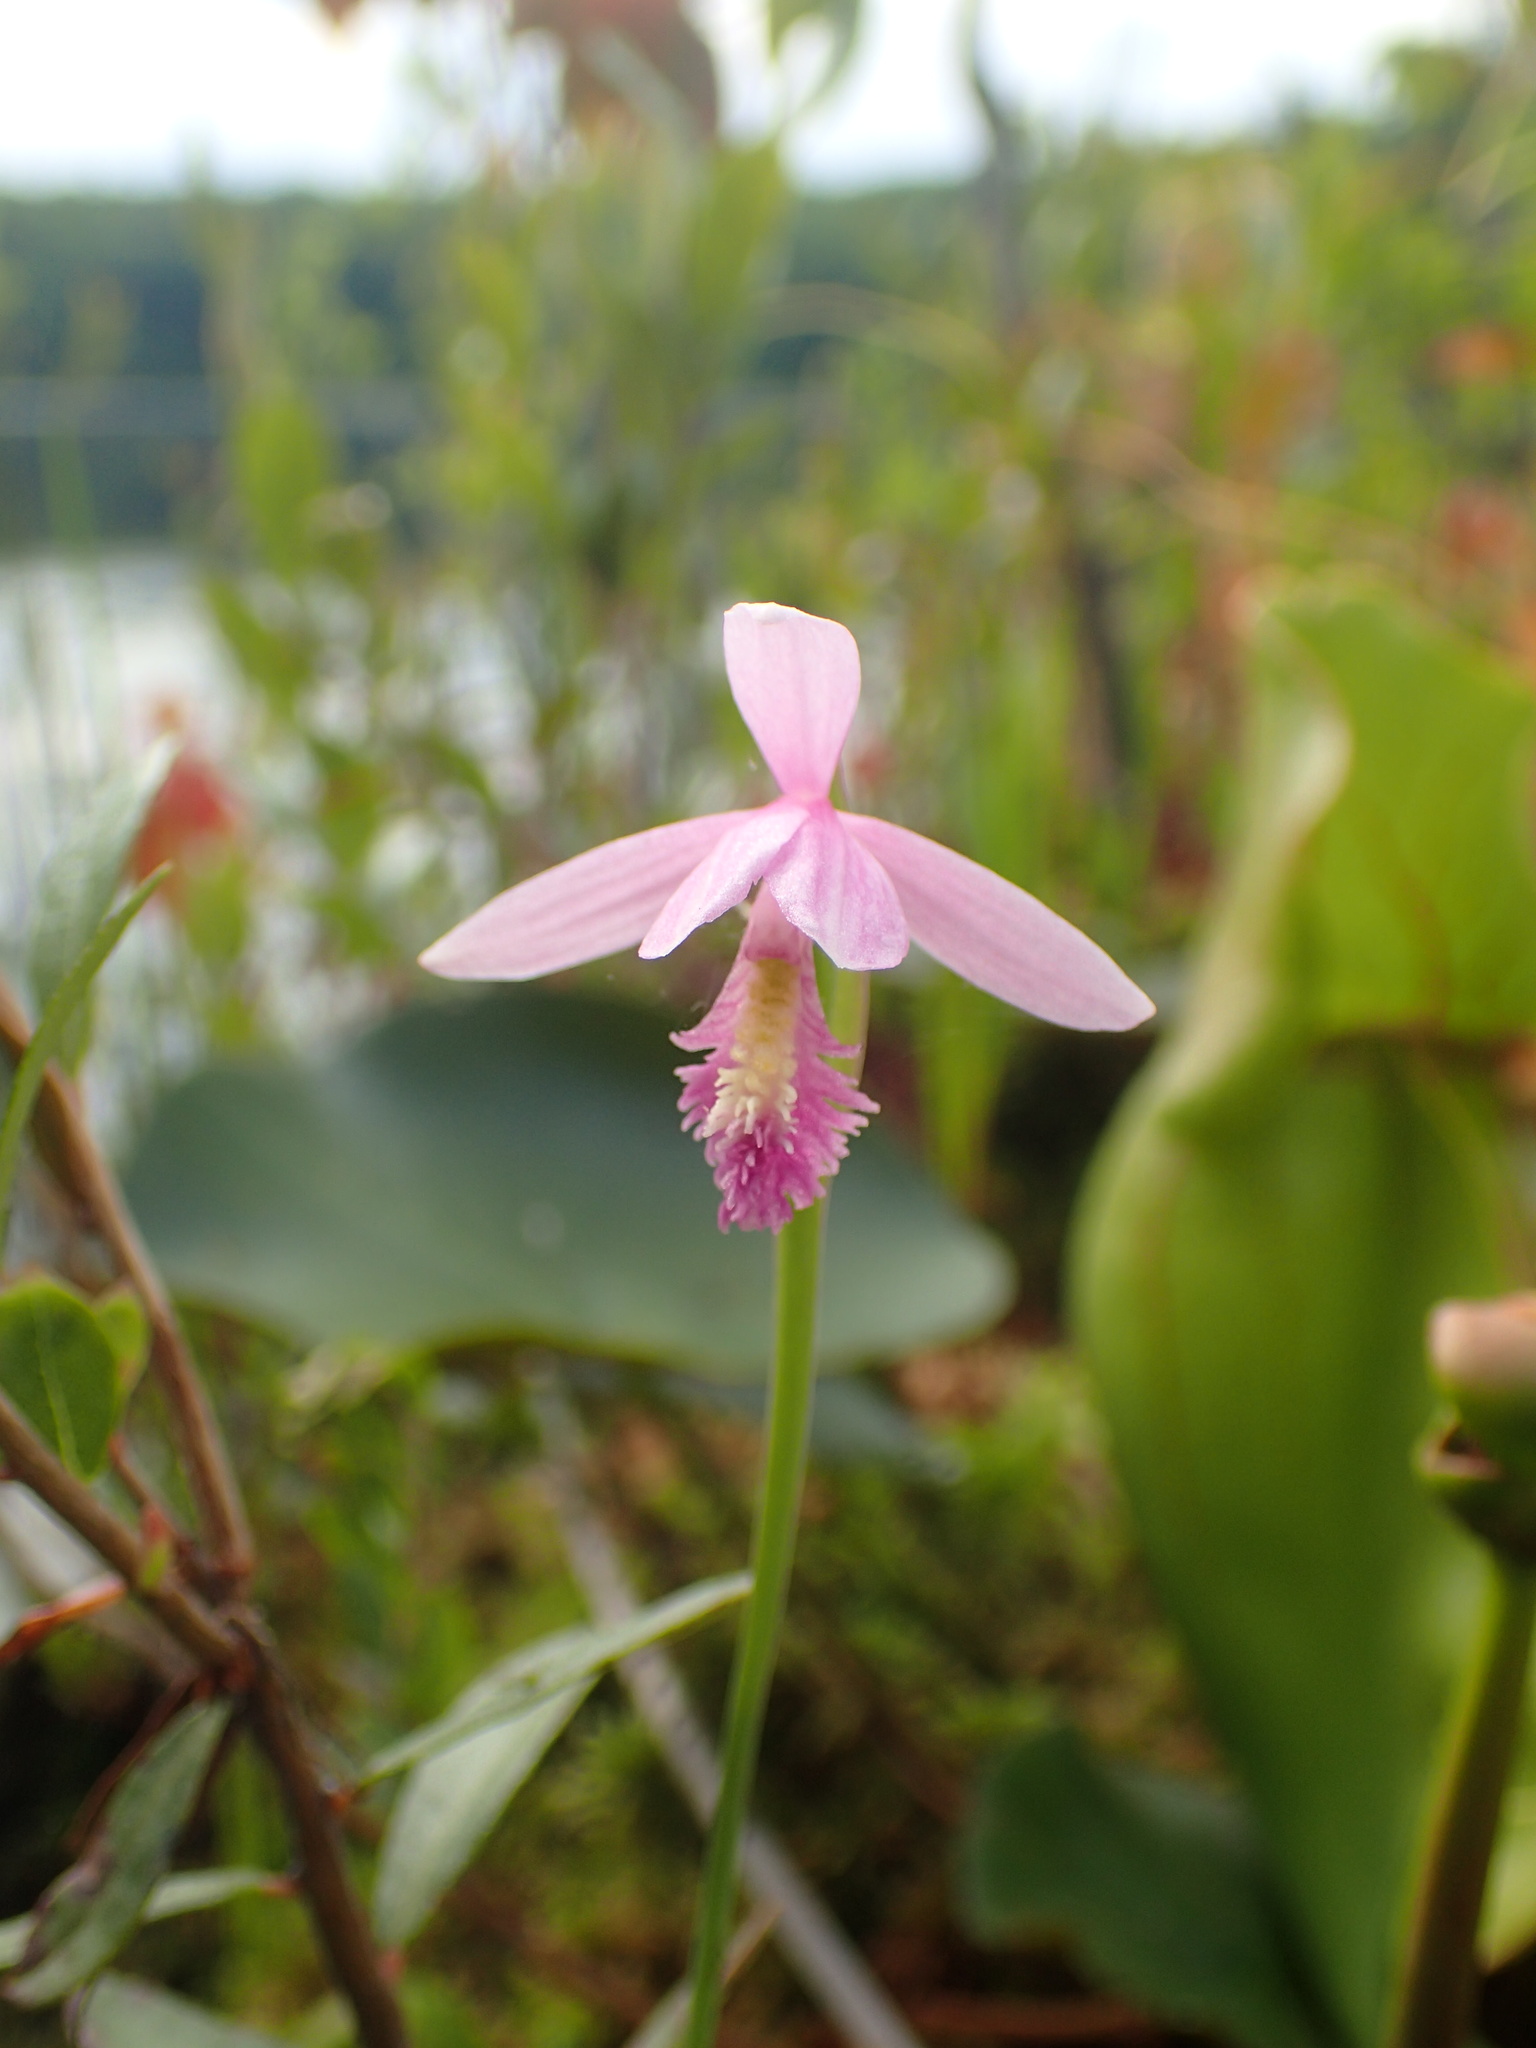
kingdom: Plantae
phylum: Tracheophyta
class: Liliopsida
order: Asparagales
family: Orchidaceae
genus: Pogonia
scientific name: Pogonia ophioglossoides
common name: Rose pogonia
